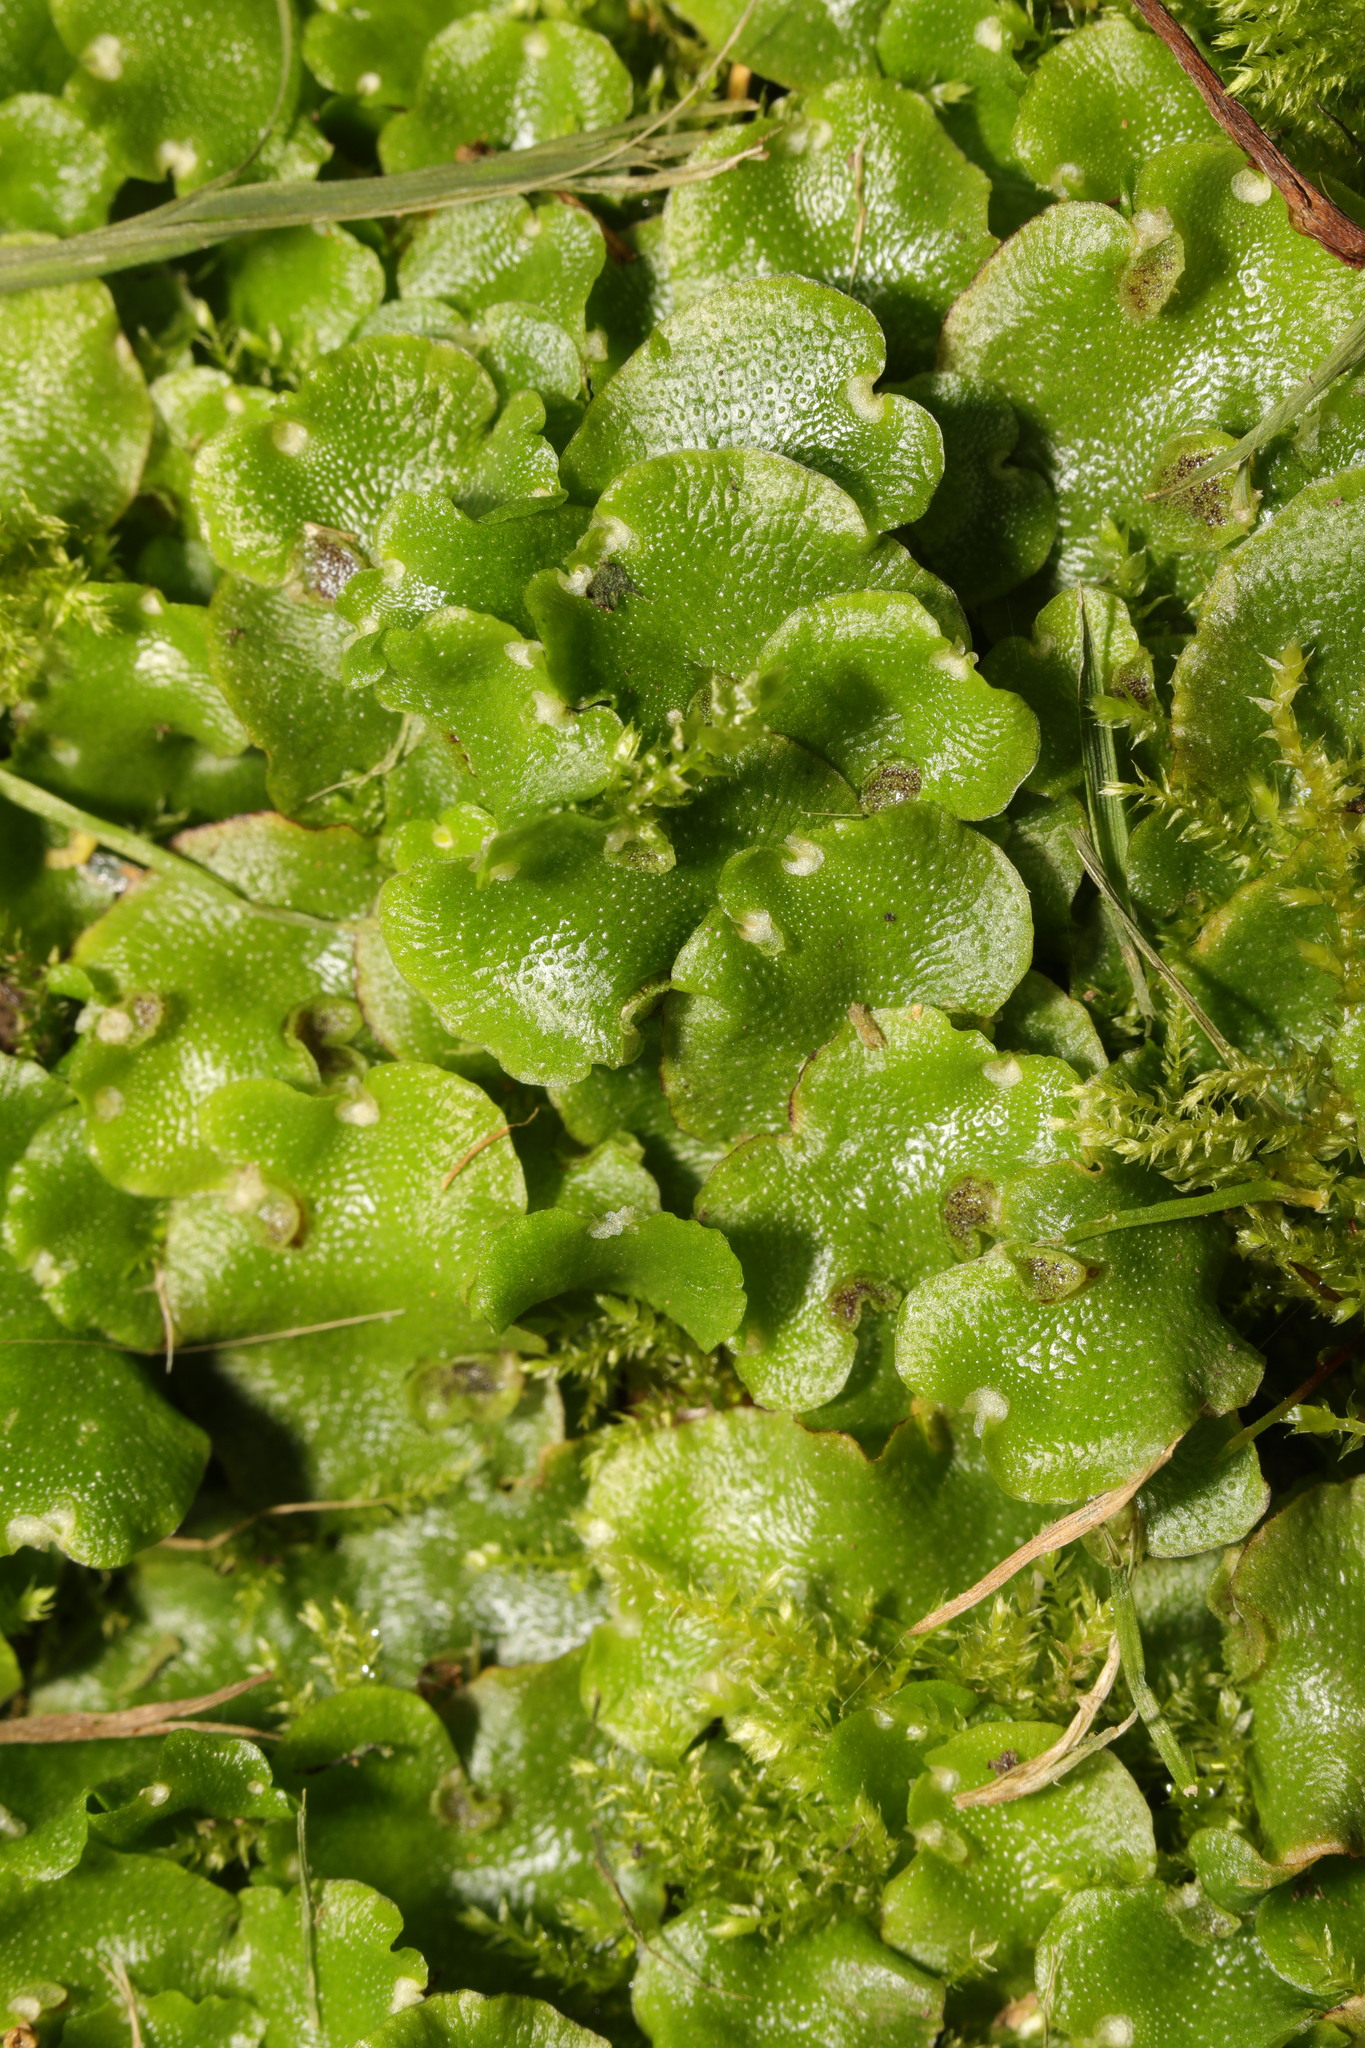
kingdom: Plantae
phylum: Marchantiophyta
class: Marchantiopsida
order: Lunulariales
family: Lunulariaceae
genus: Lunularia
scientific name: Lunularia cruciata
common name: Crescent-cup liverwort
